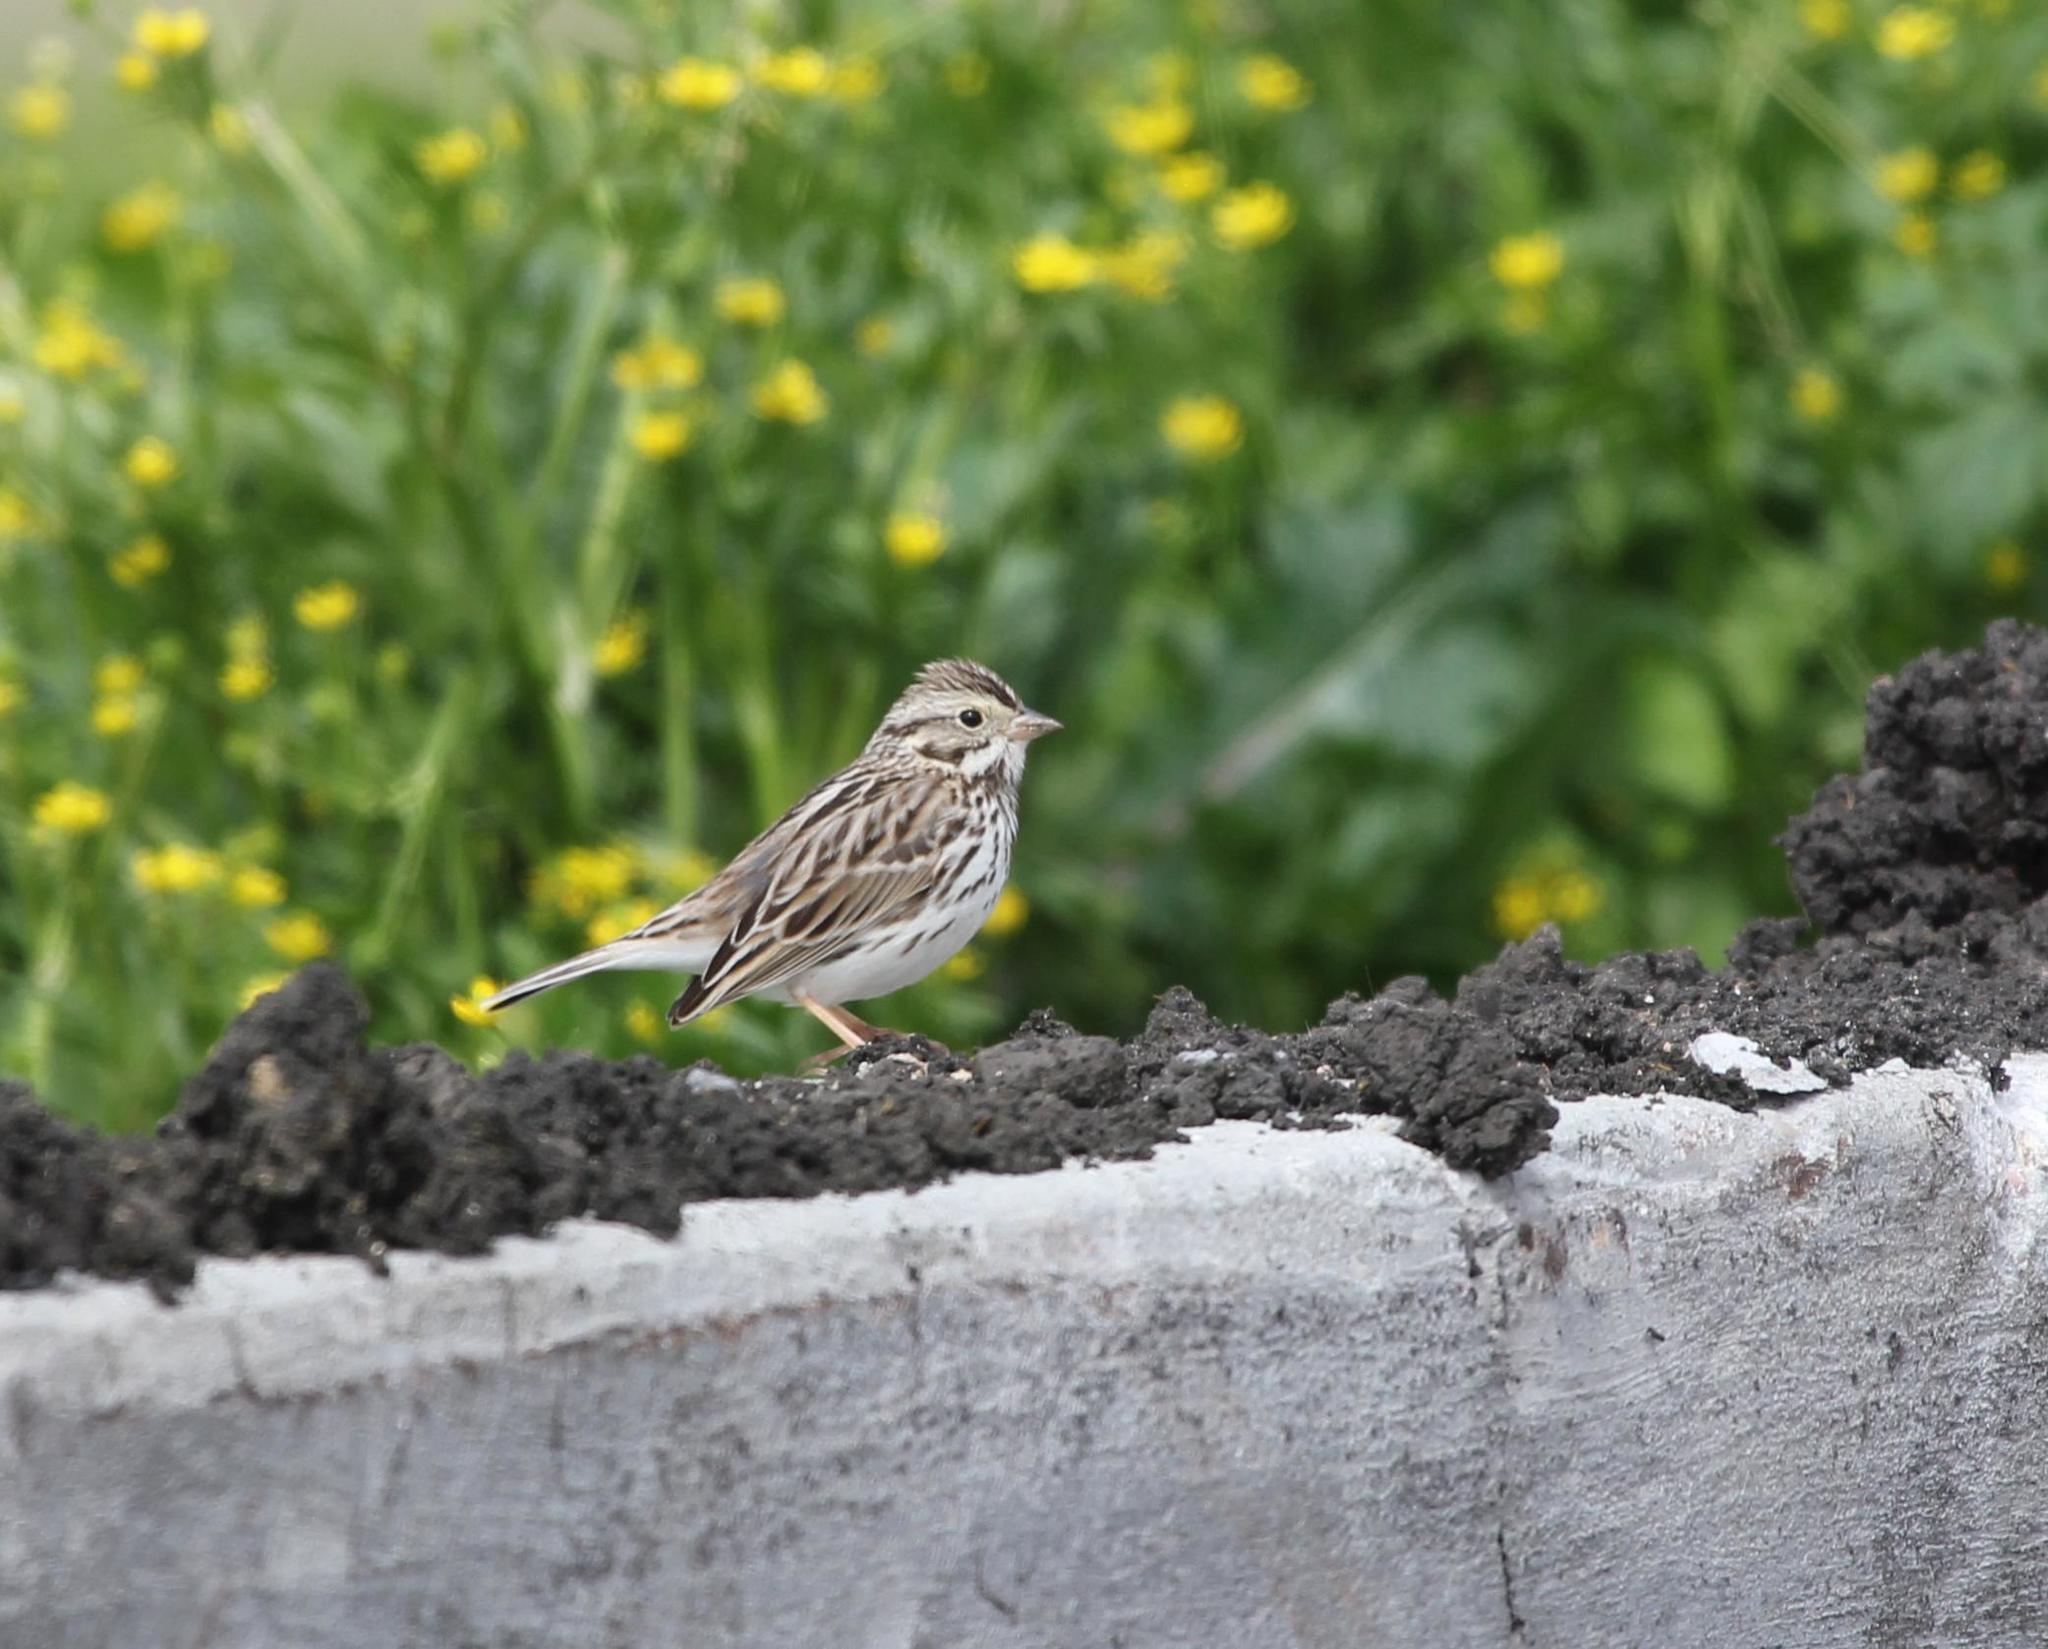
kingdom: Animalia
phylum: Chordata
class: Aves
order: Passeriformes
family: Passerellidae
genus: Passerculus
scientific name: Passerculus sandwichensis
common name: Savannah sparrow
